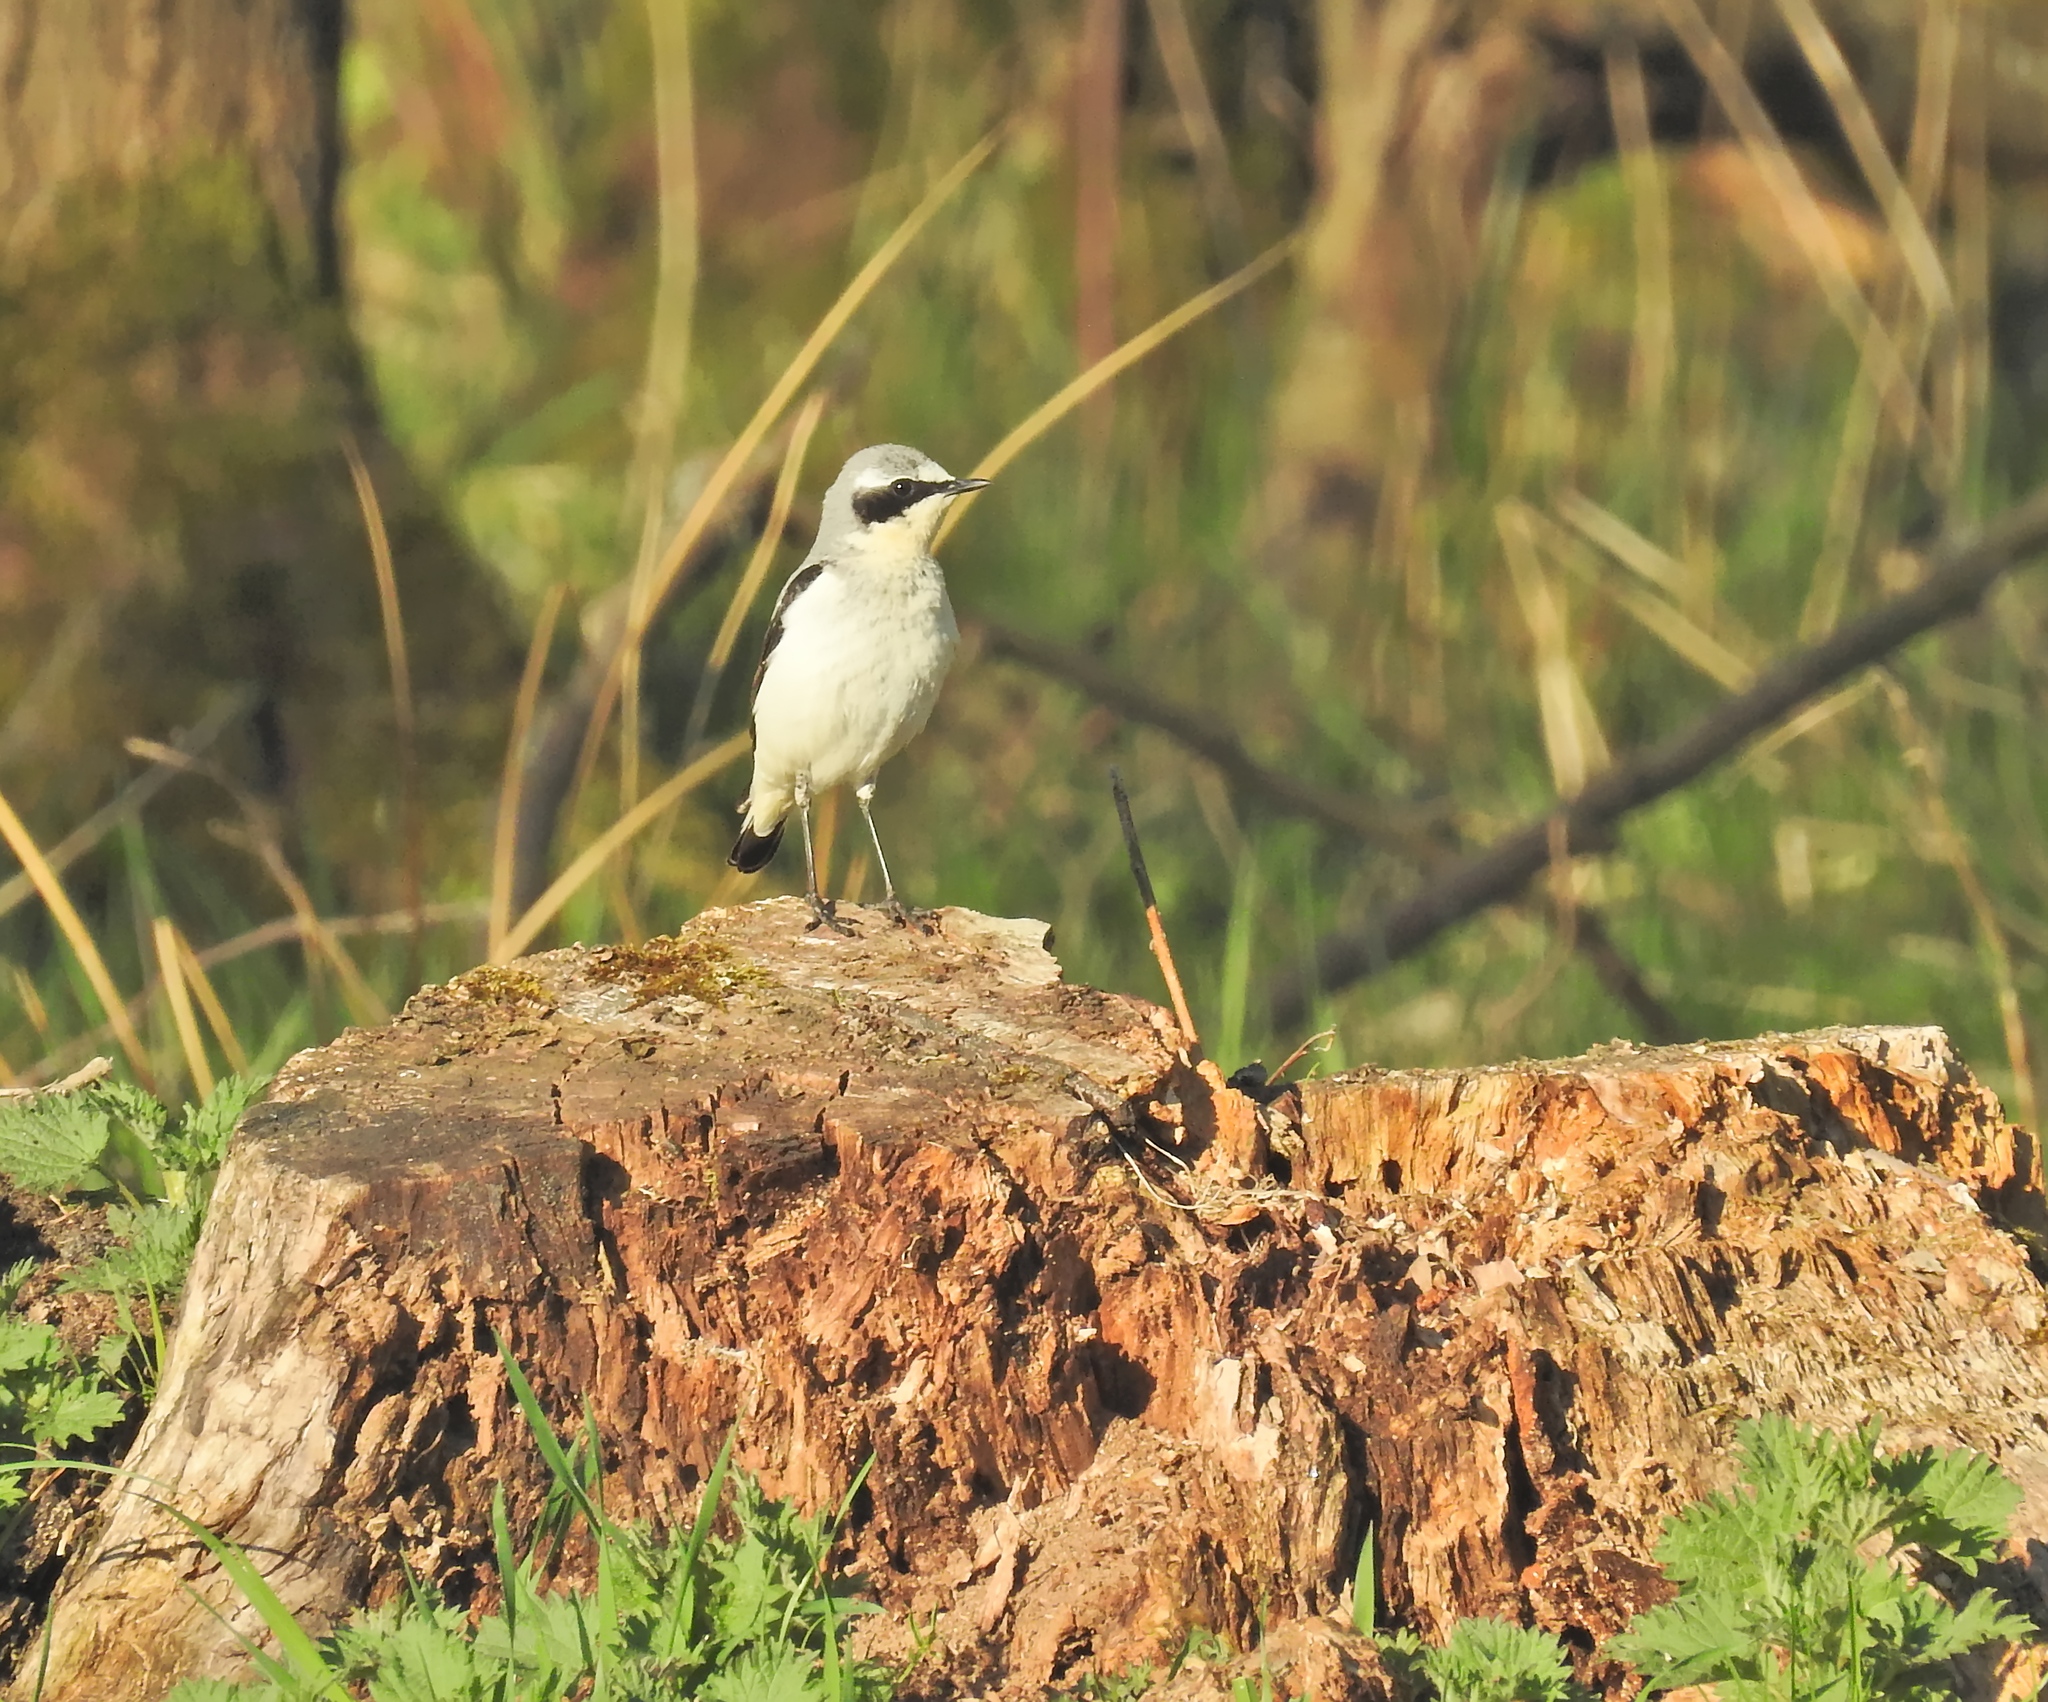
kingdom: Animalia
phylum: Chordata
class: Aves
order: Passeriformes
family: Muscicapidae
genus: Oenanthe
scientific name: Oenanthe oenanthe
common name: Northern wheatear
